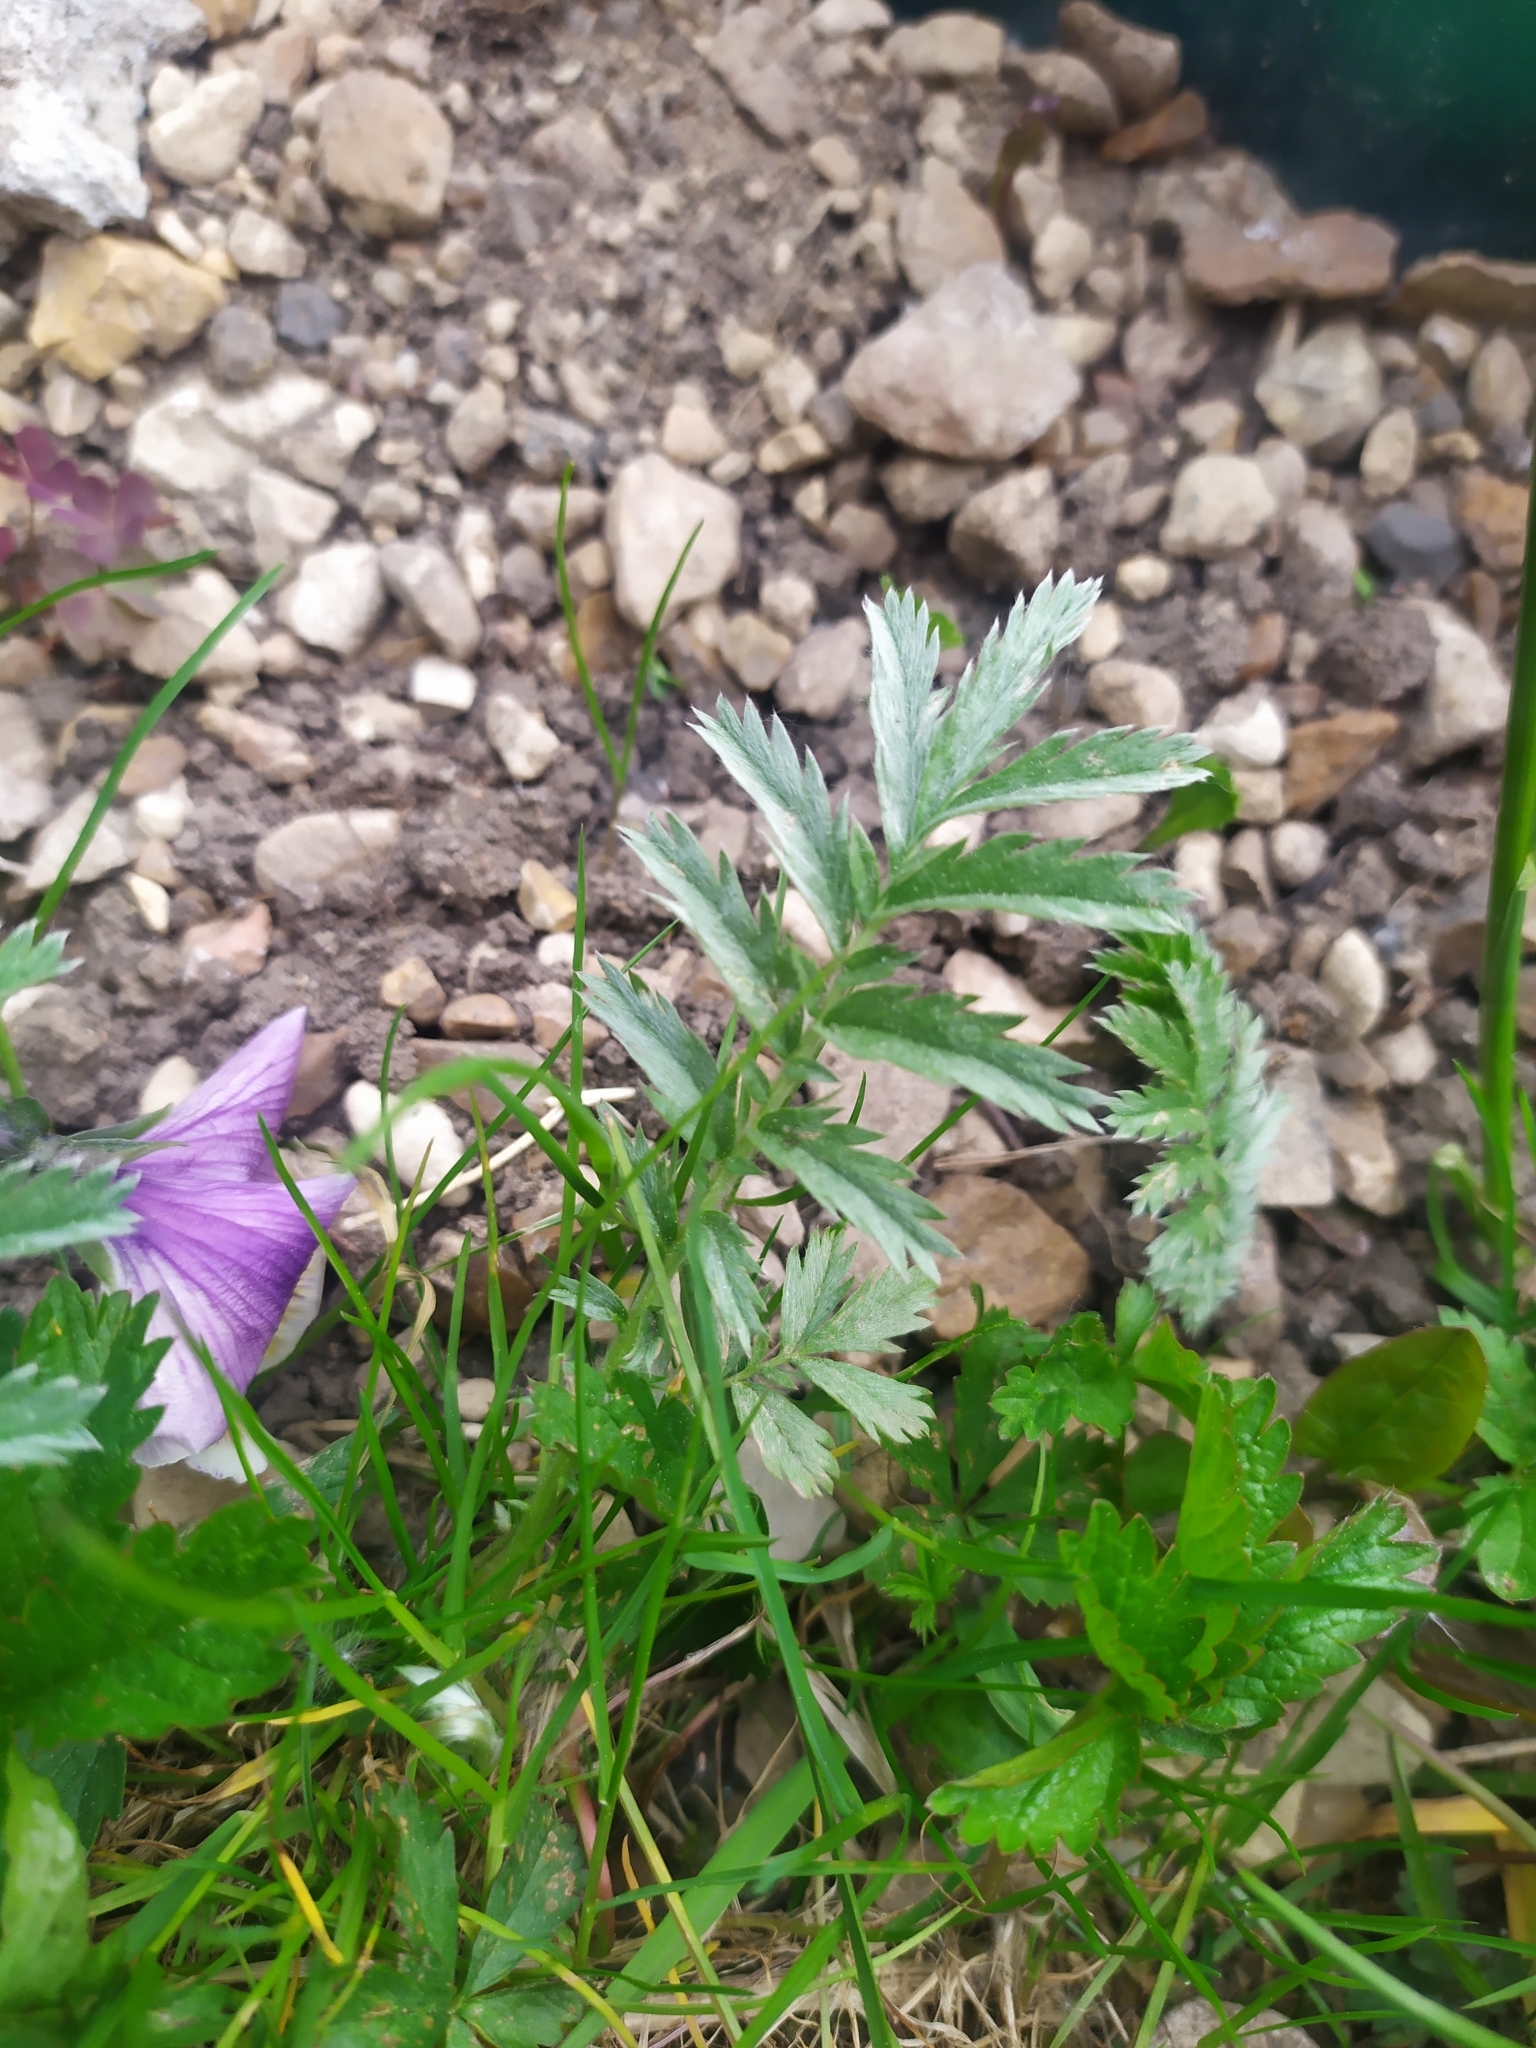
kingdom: Plantae
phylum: Tracheophyta
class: Magnoliopsida
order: Rosales
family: Rosaceae
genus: Argentina
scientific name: Argentina anserina
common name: Common silverweed
